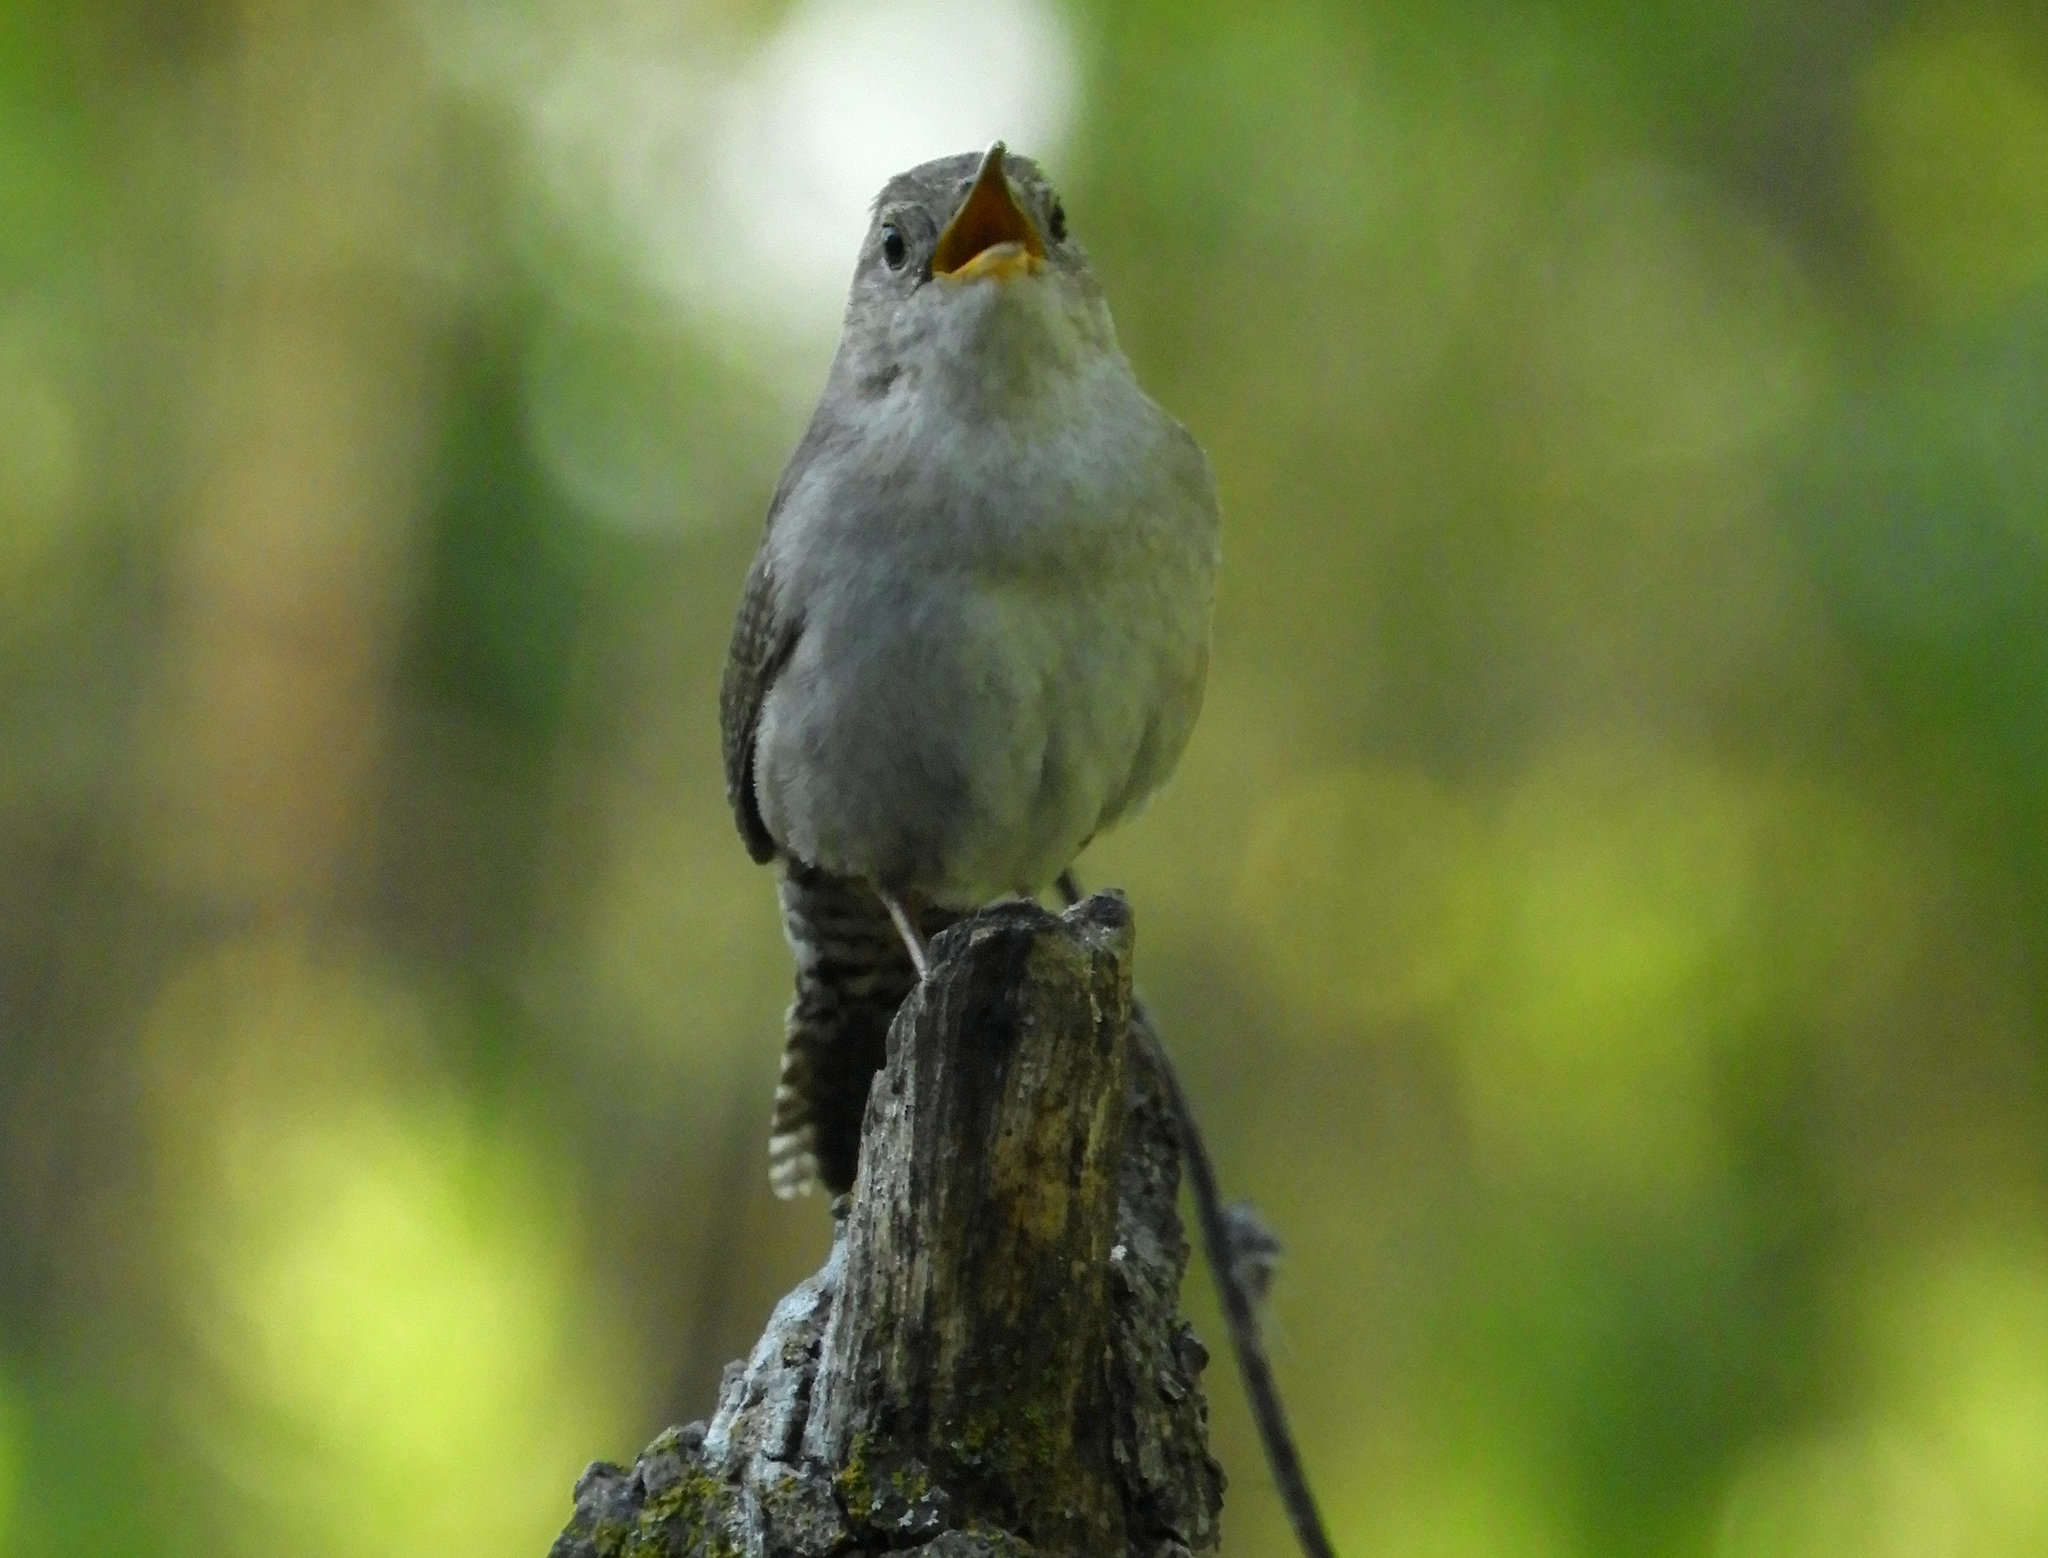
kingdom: Animalia
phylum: Chordata
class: Aves
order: Passeriformes
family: Troglodytidae
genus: Troglodytes
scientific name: Troglodytes aedon
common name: House wren
